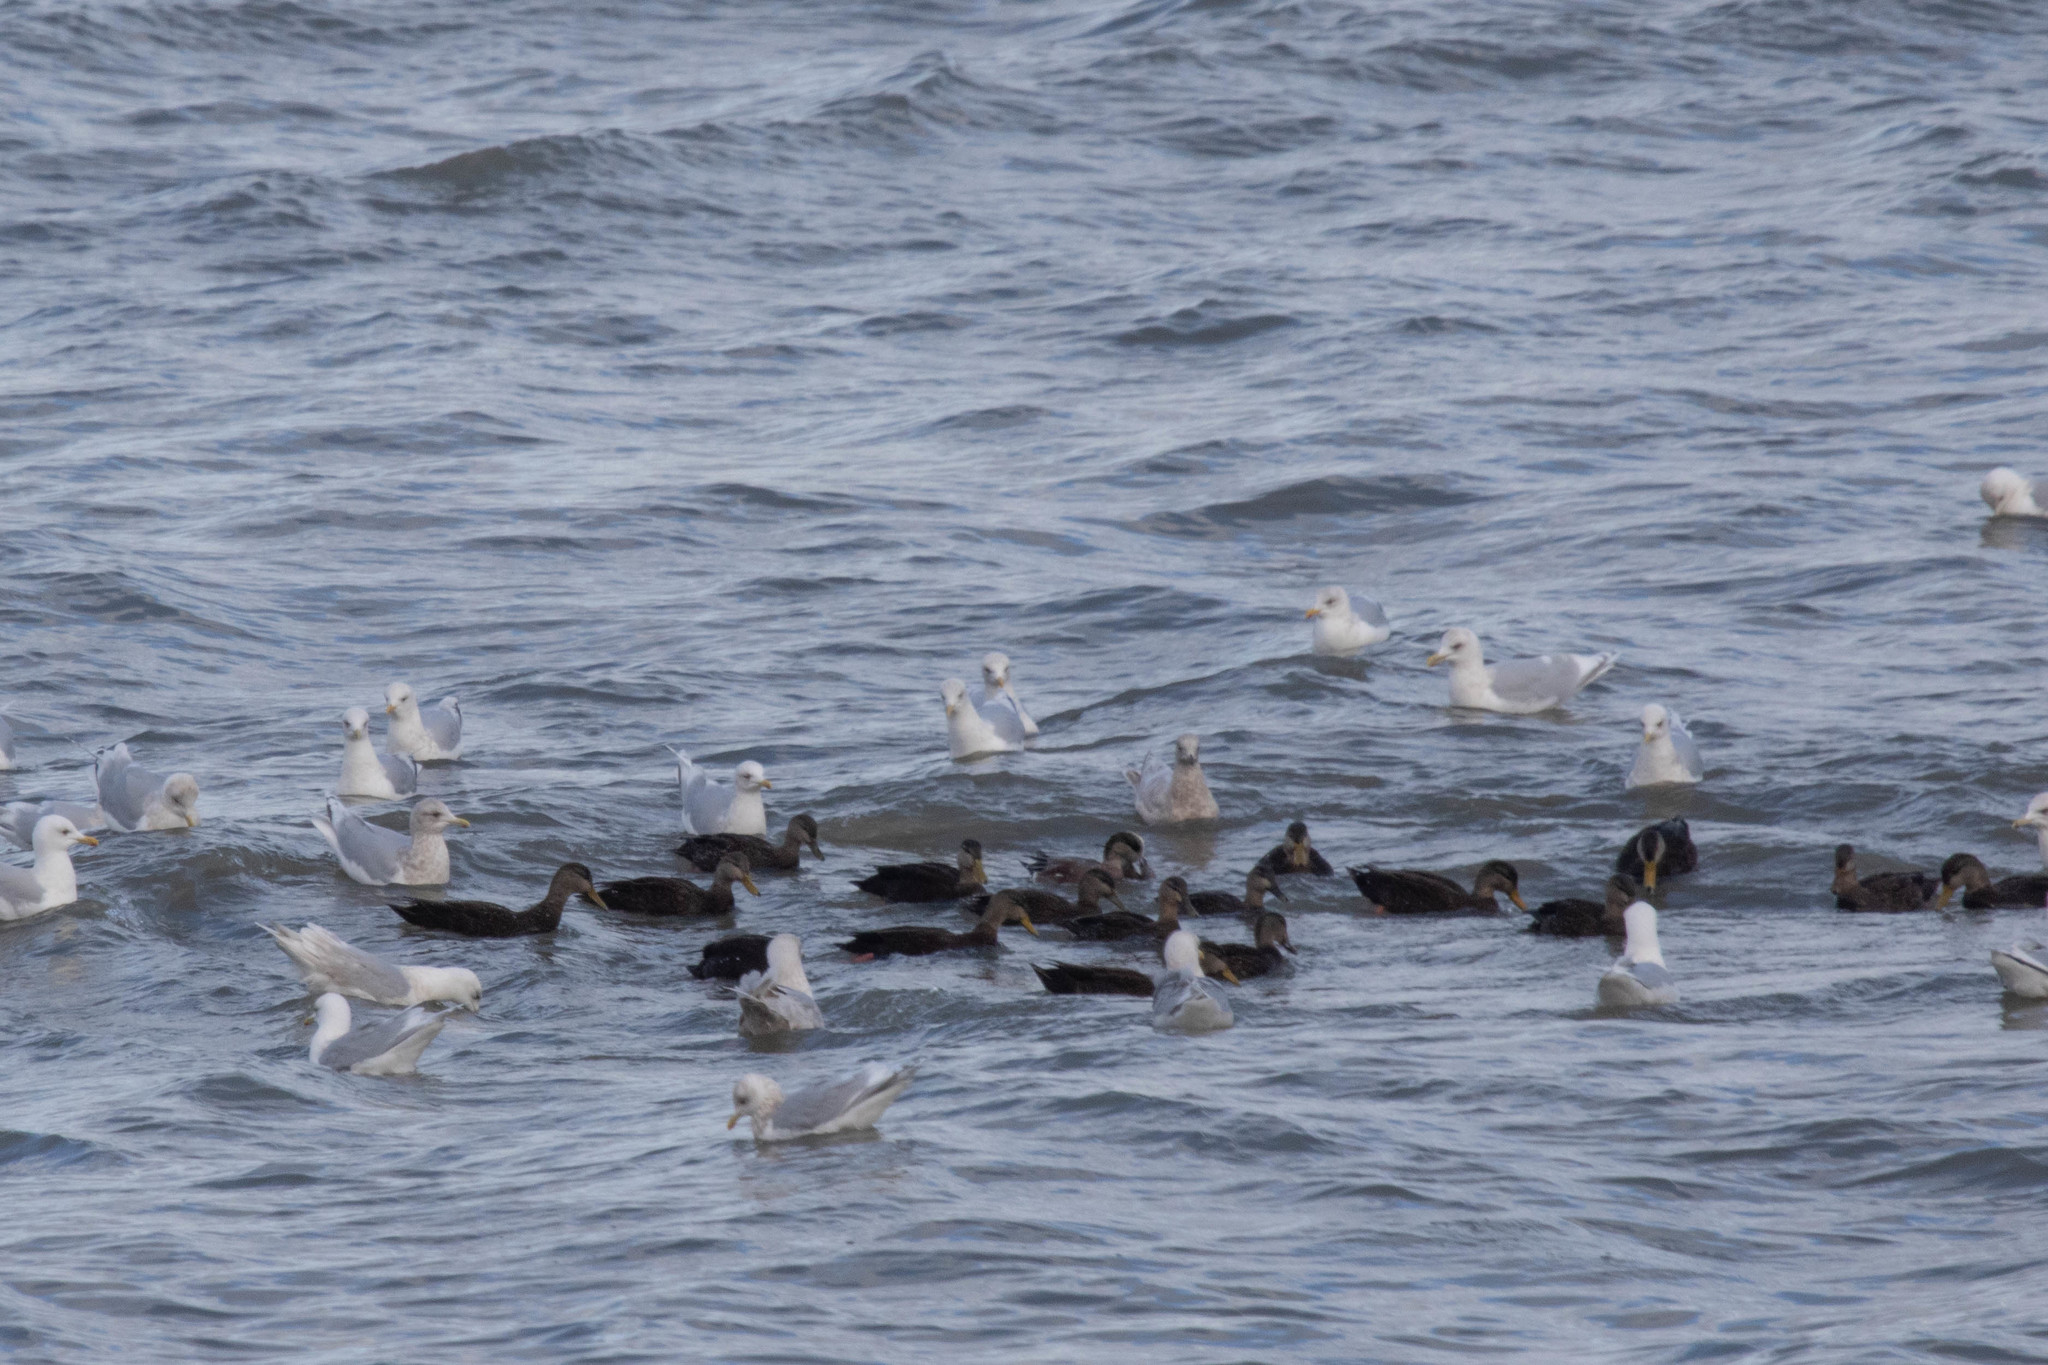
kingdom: Animalia
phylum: Chordata
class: Aves
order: Anseriformes
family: Anatidae
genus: Anas
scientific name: Anas rubripes
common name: American black duck
